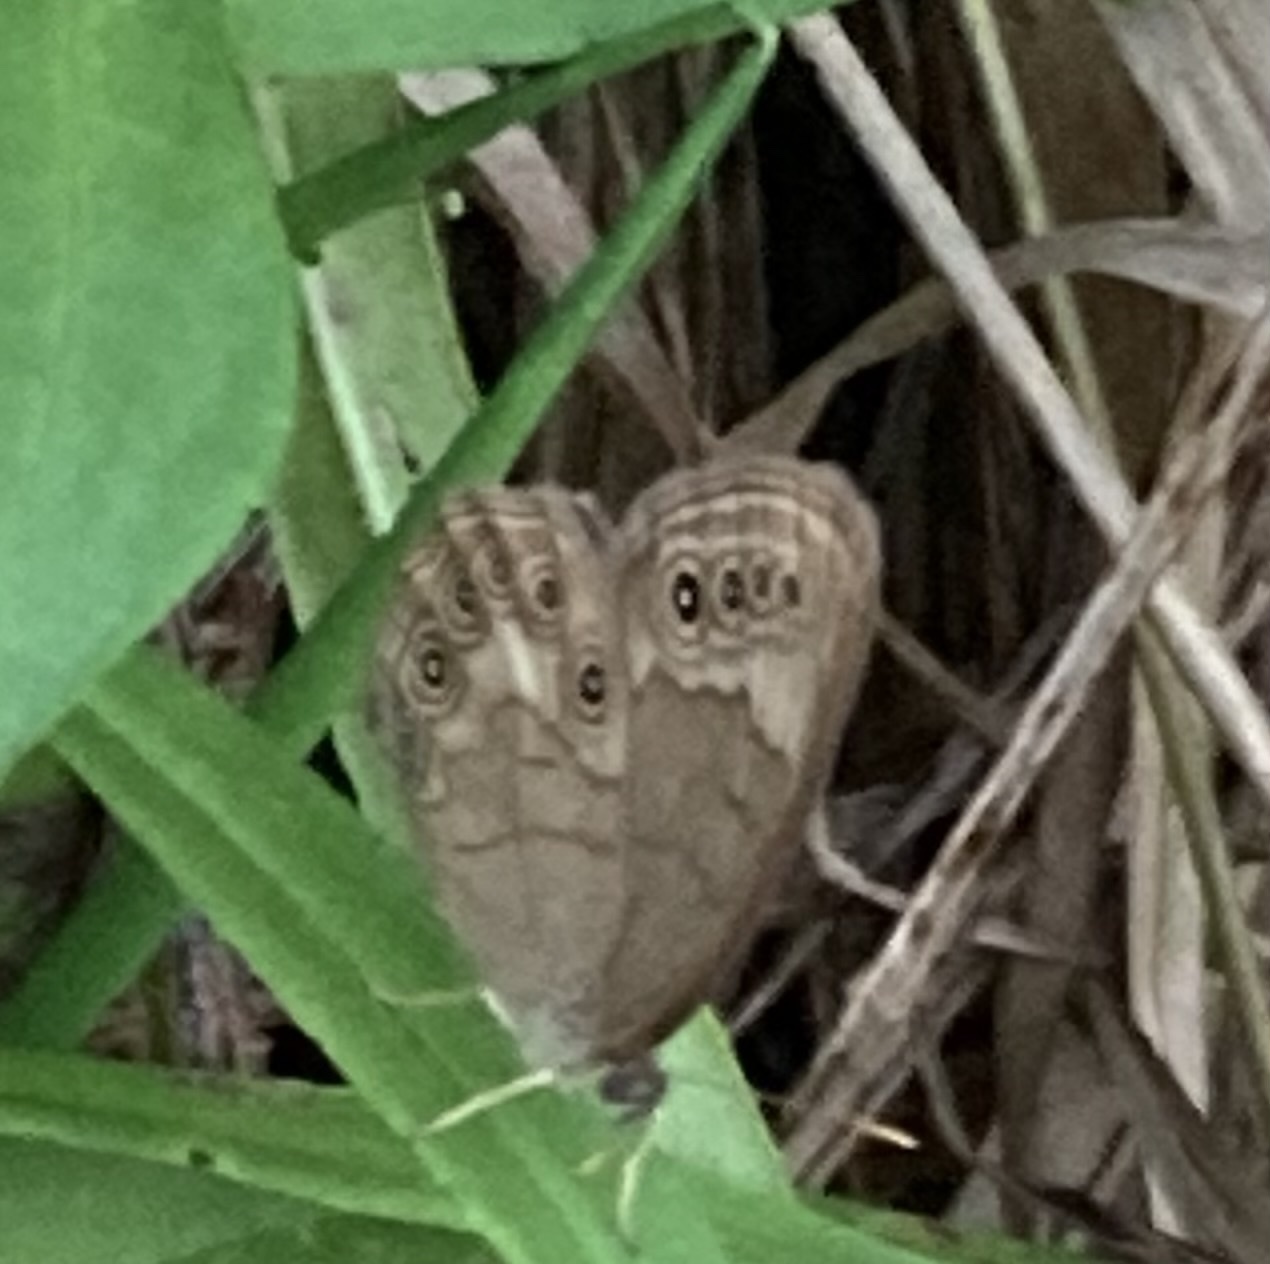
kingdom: Animalia
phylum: Arthropoda
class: Insecta
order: Lepidoptera
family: Nymphalidae
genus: Lethe
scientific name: Lethe eurydice
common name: Eyed brown
